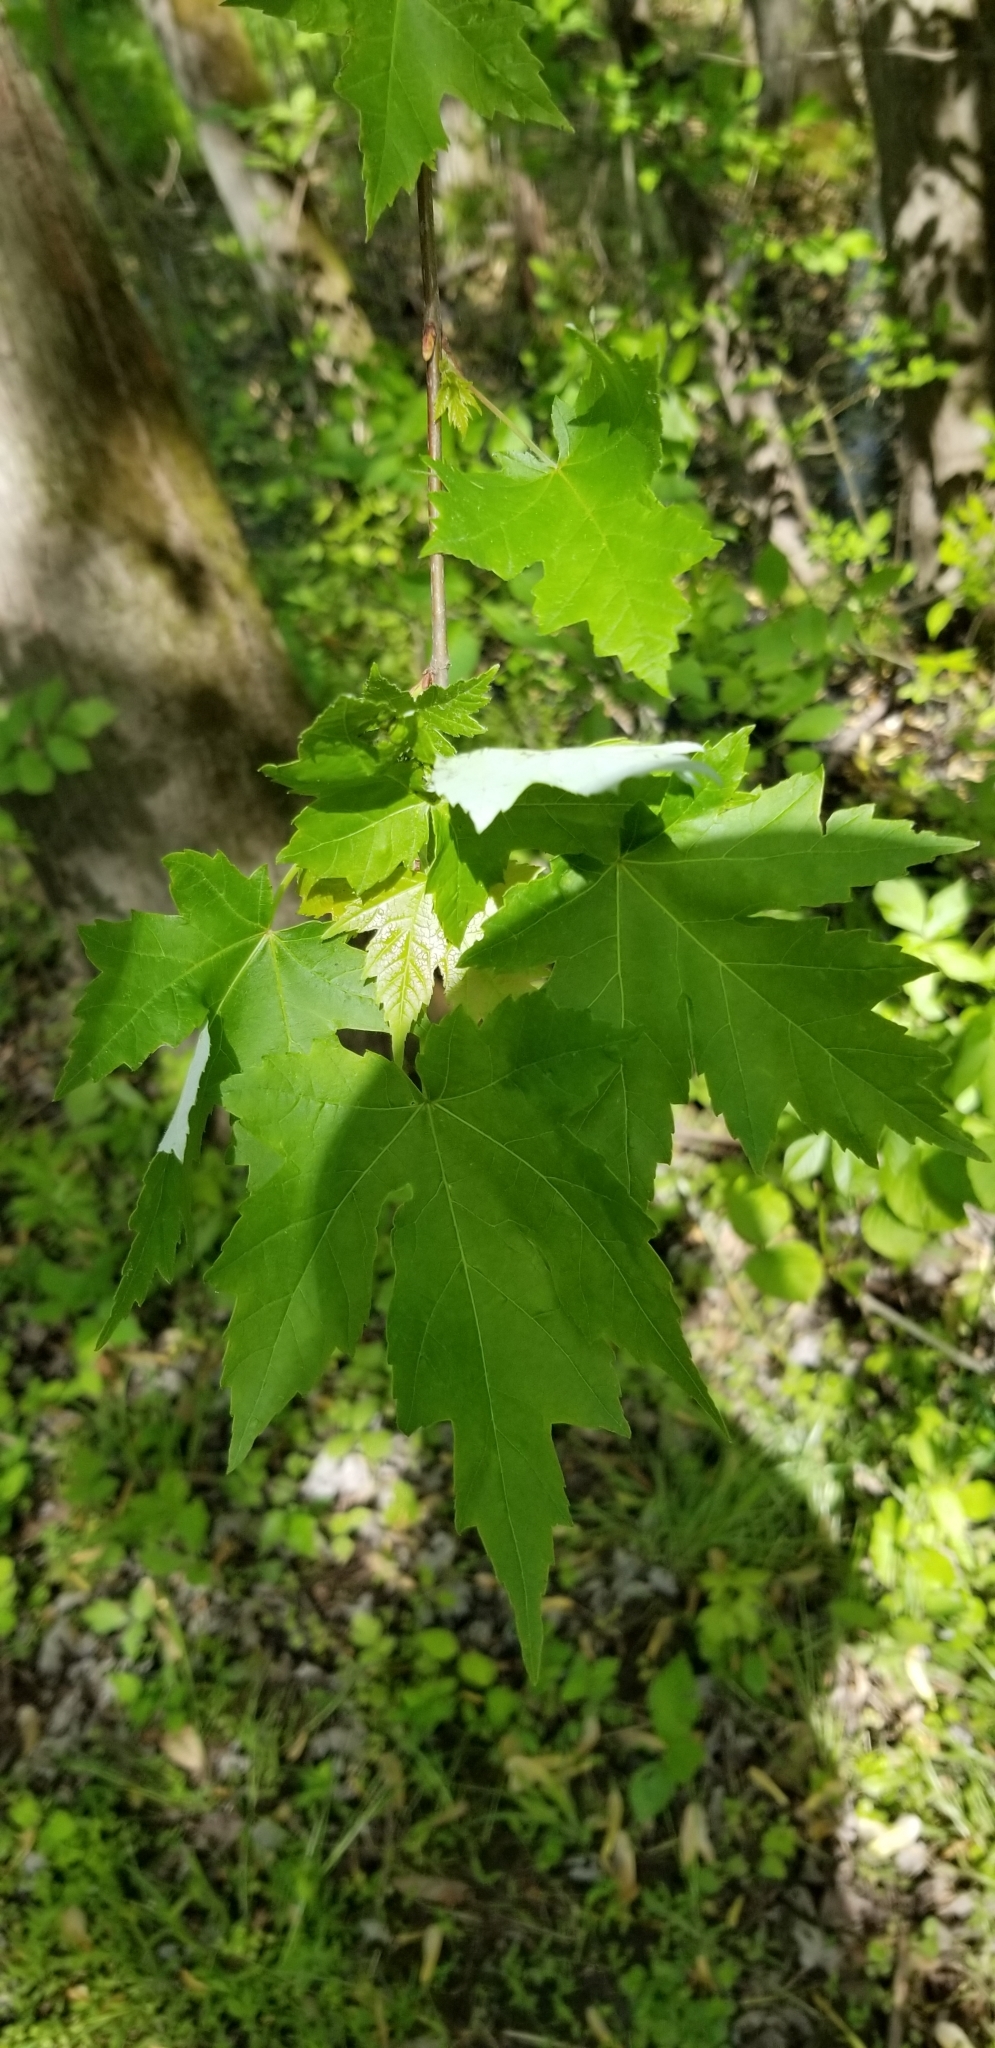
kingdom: Plantae
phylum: Tracheophyta
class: Magnoliopsida
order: Sapindales
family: Sapindaceae
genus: Acer
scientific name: Acer saccharinum
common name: Silver maple
